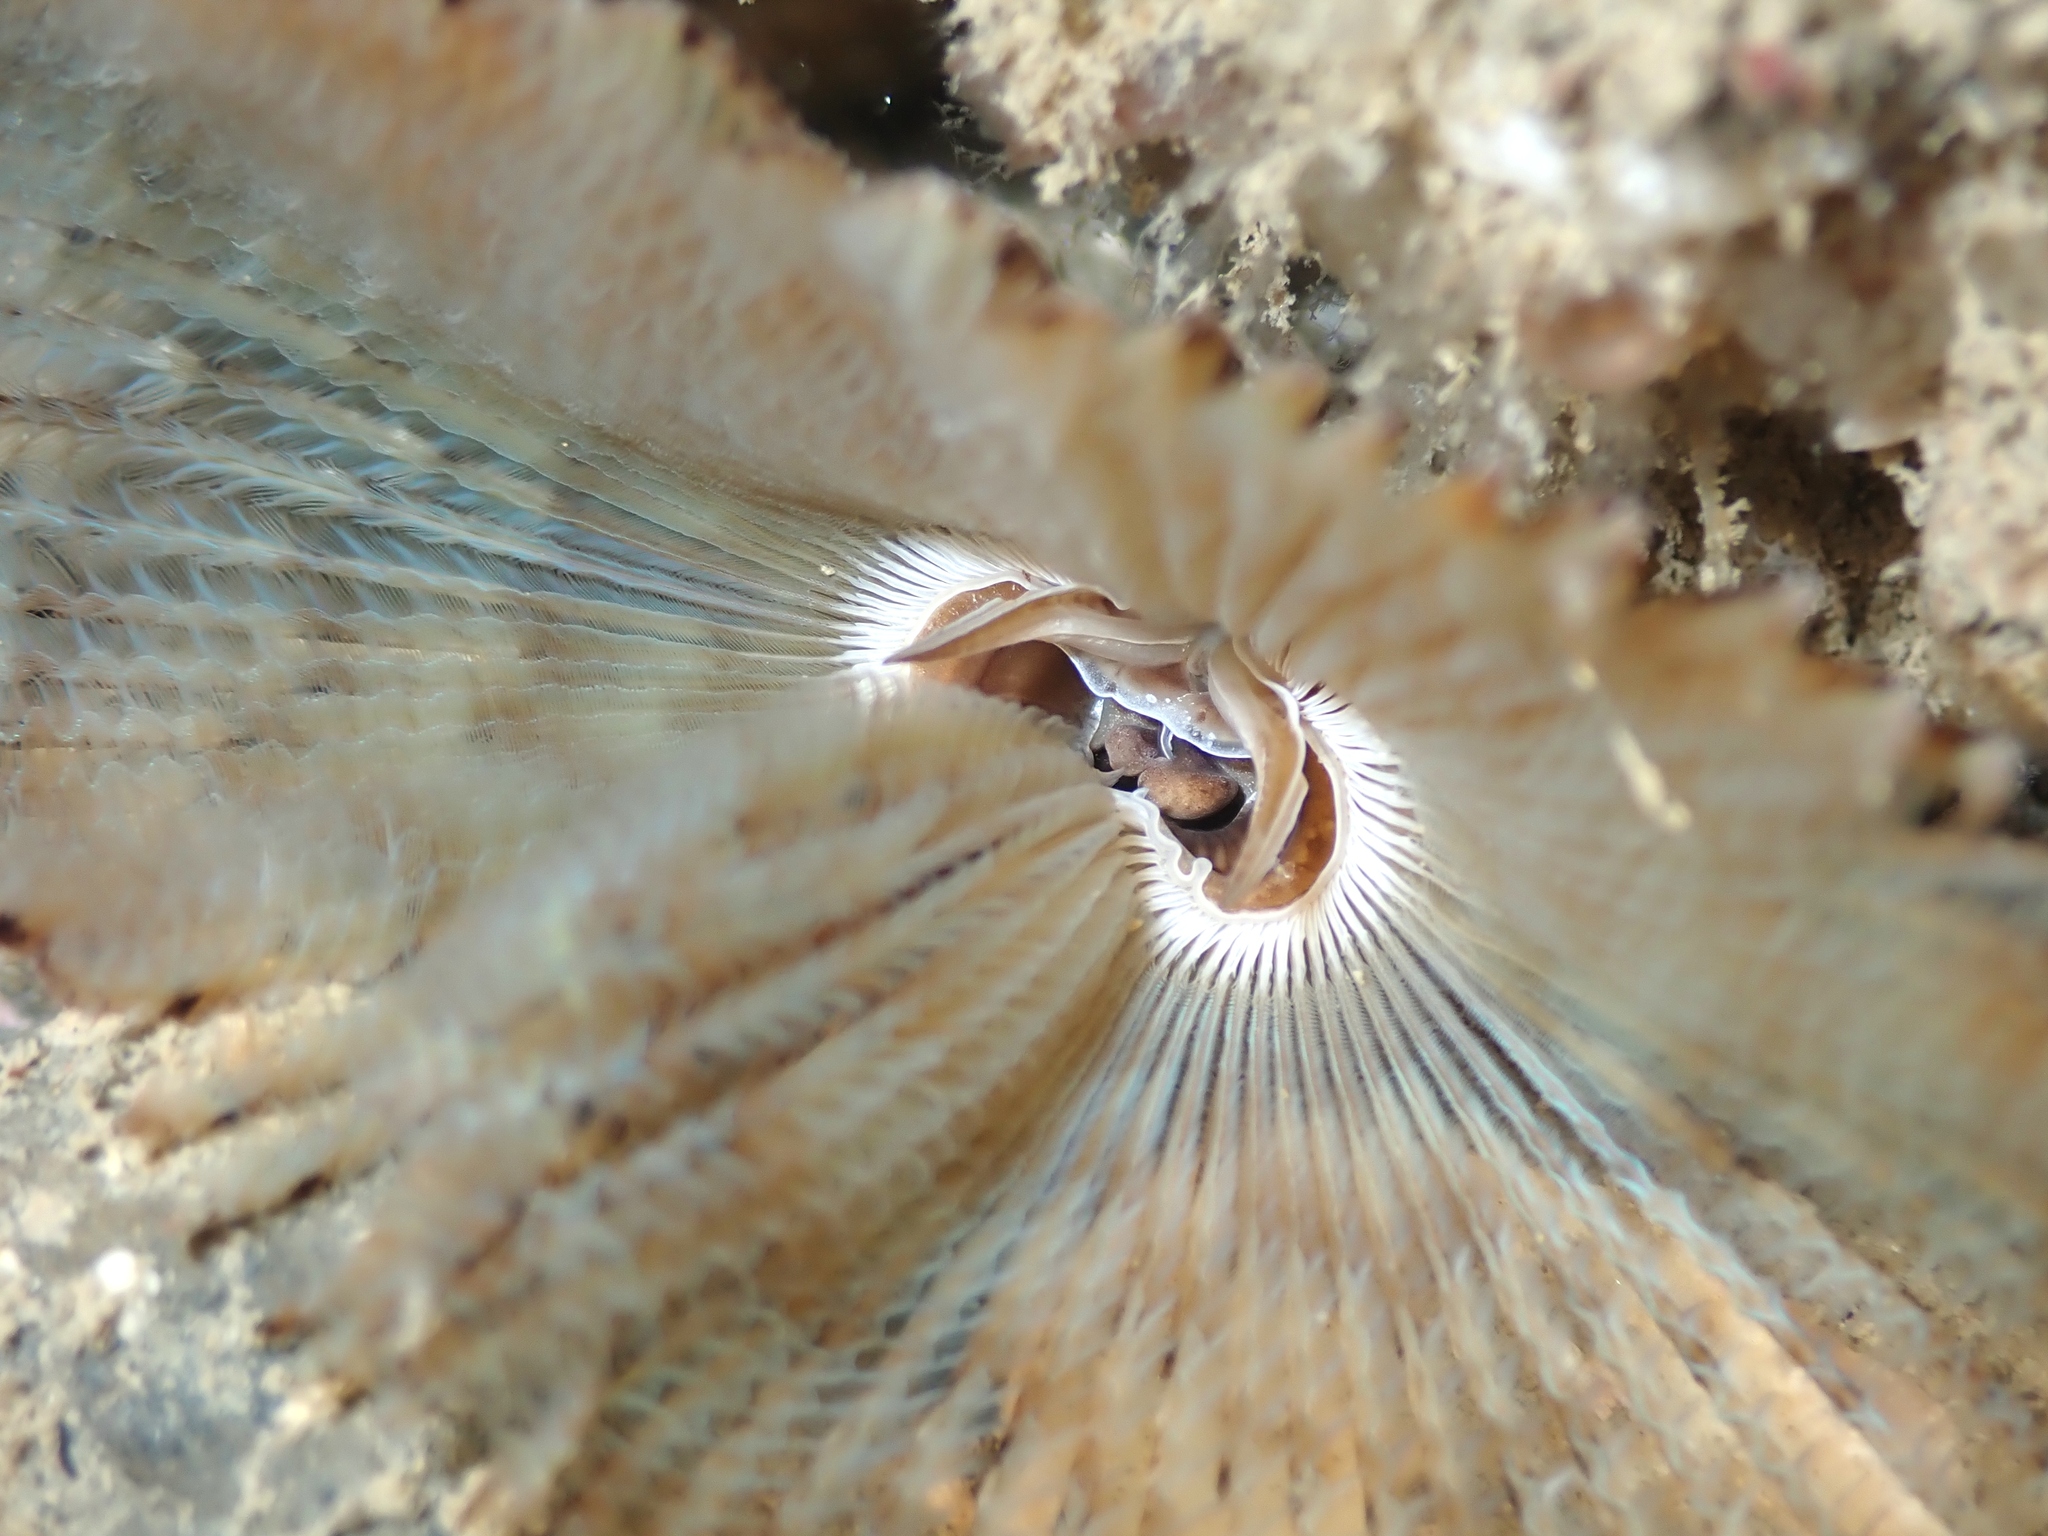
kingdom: Animalia
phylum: Annelida
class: Polychaeta
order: Sabellida
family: Sabellidae
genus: Pseudobranchiomma
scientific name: Pseudobranchiomma grandis
